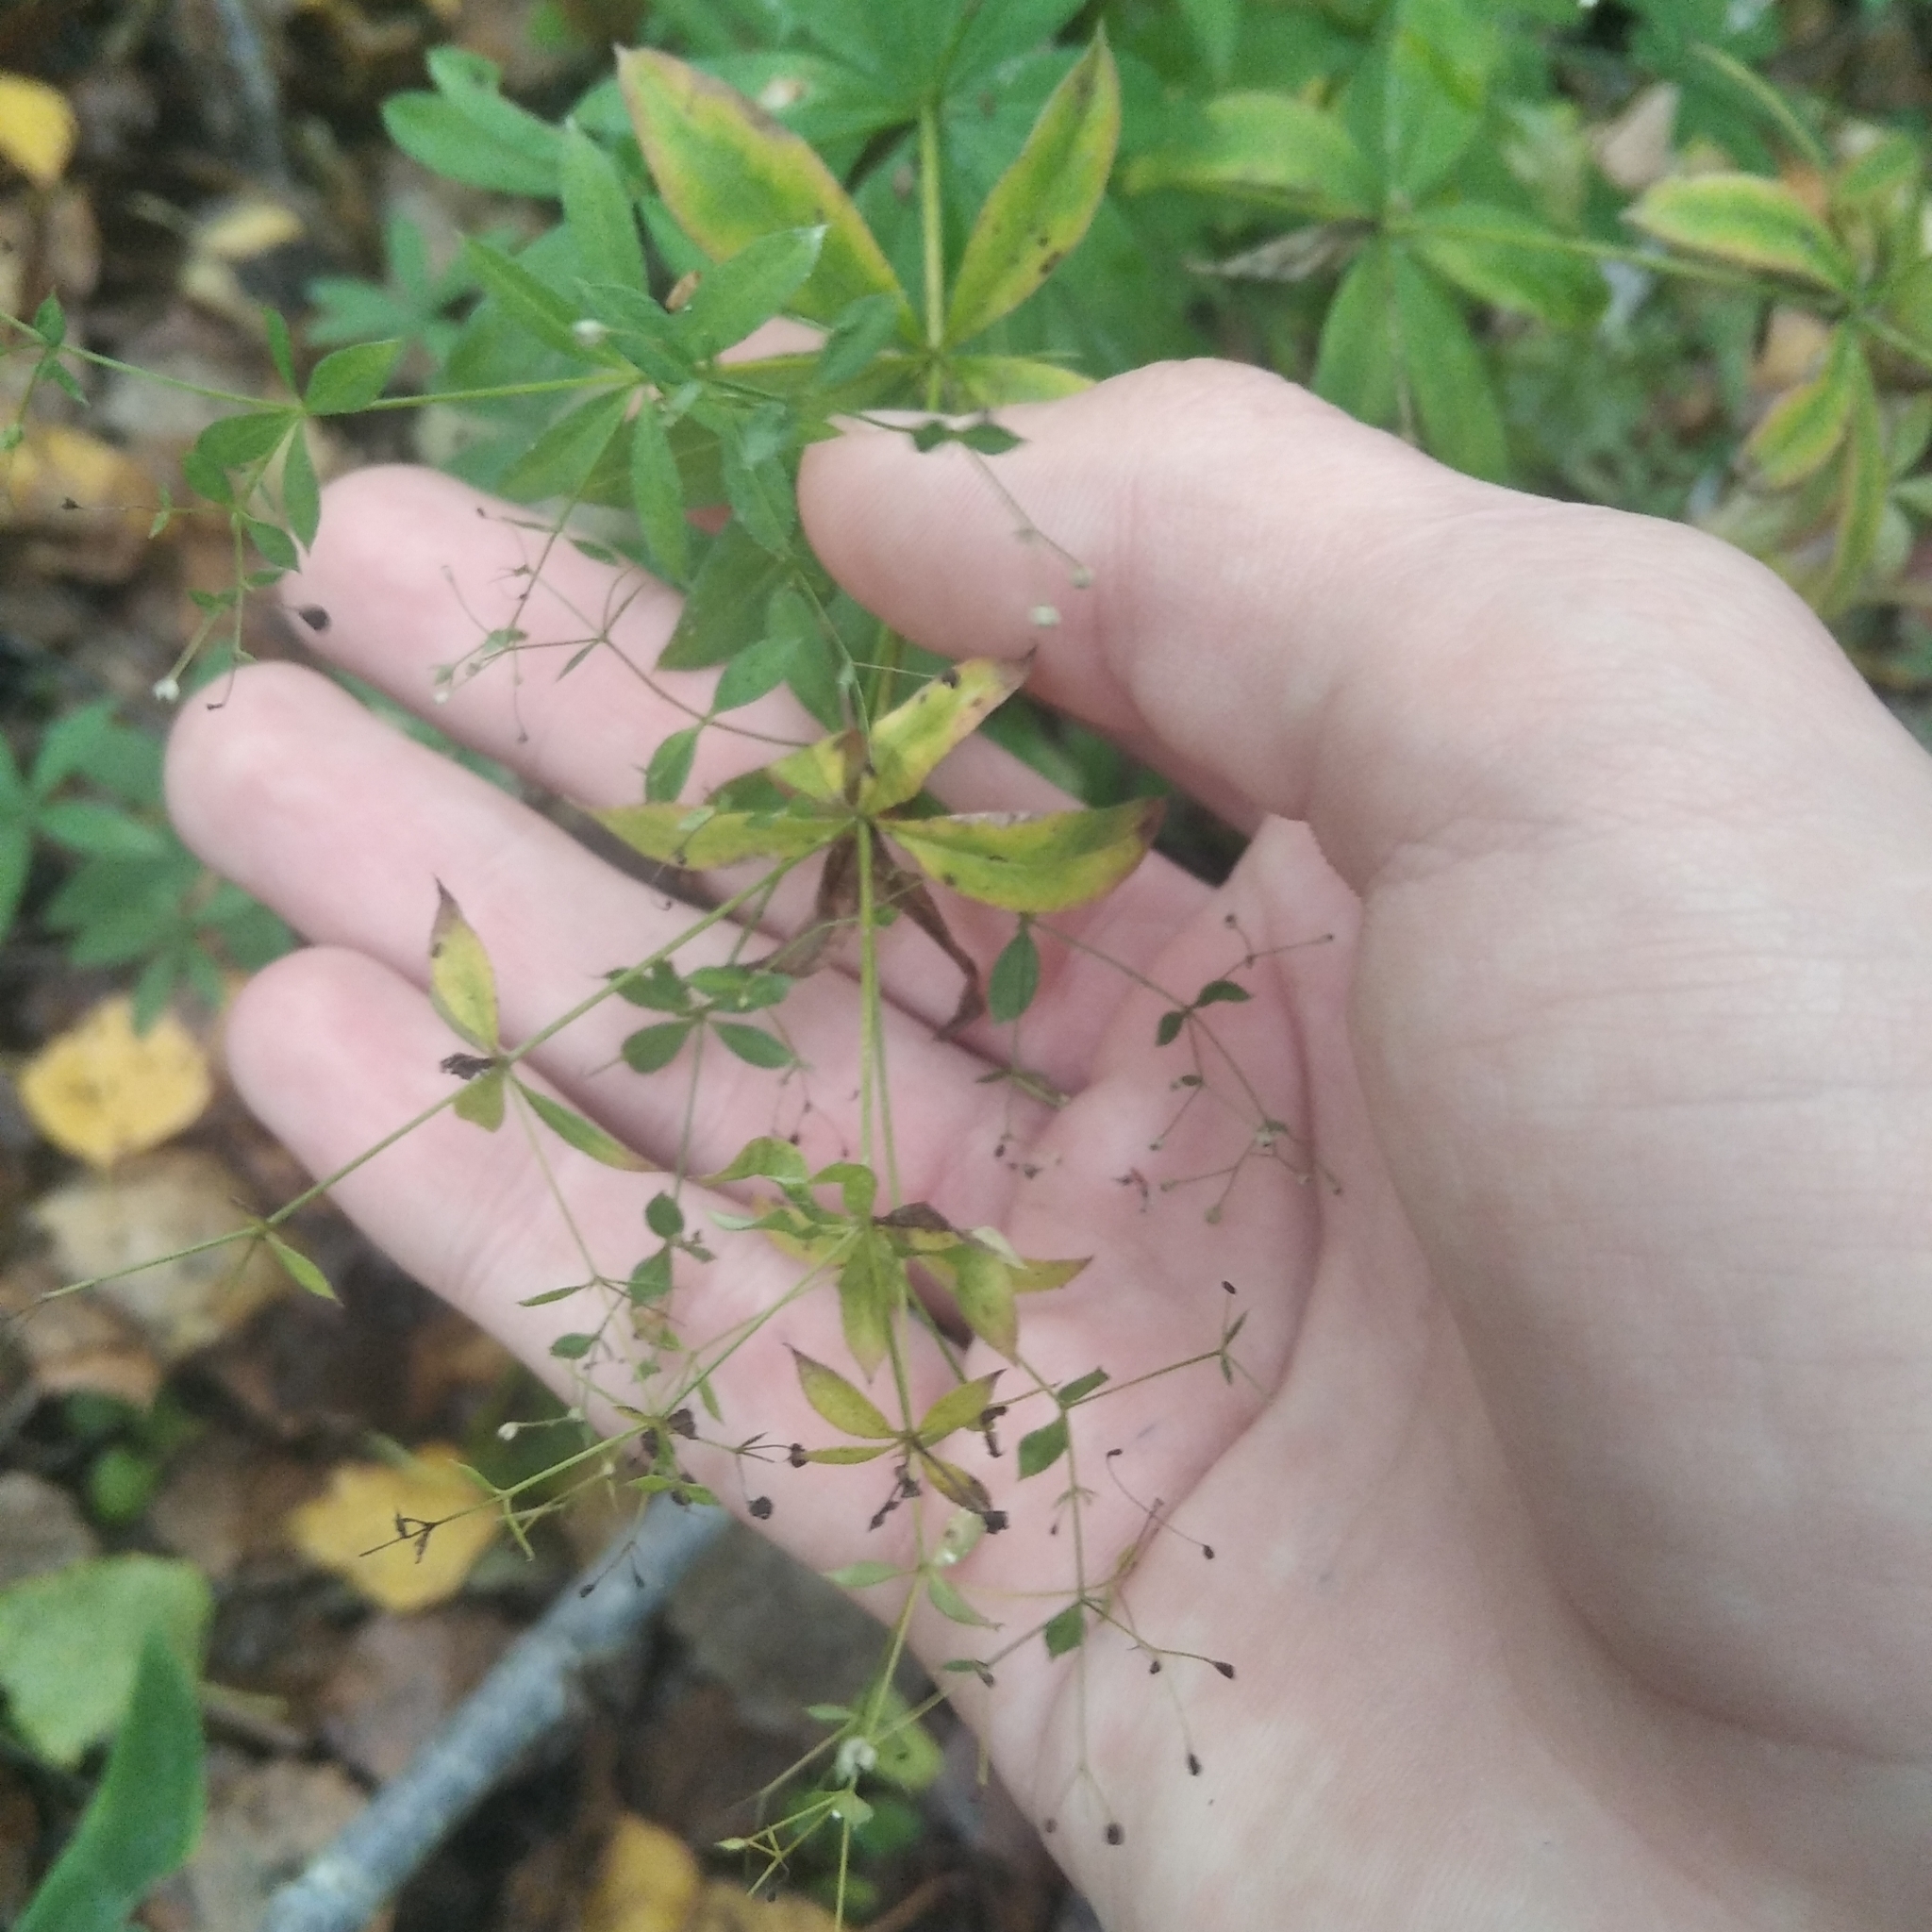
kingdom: Plantae
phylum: Tracheophyta
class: Magnoliopsida
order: Gentianales
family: Rubiaceae
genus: Galium
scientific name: Galium intermedium
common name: Bedstraw
